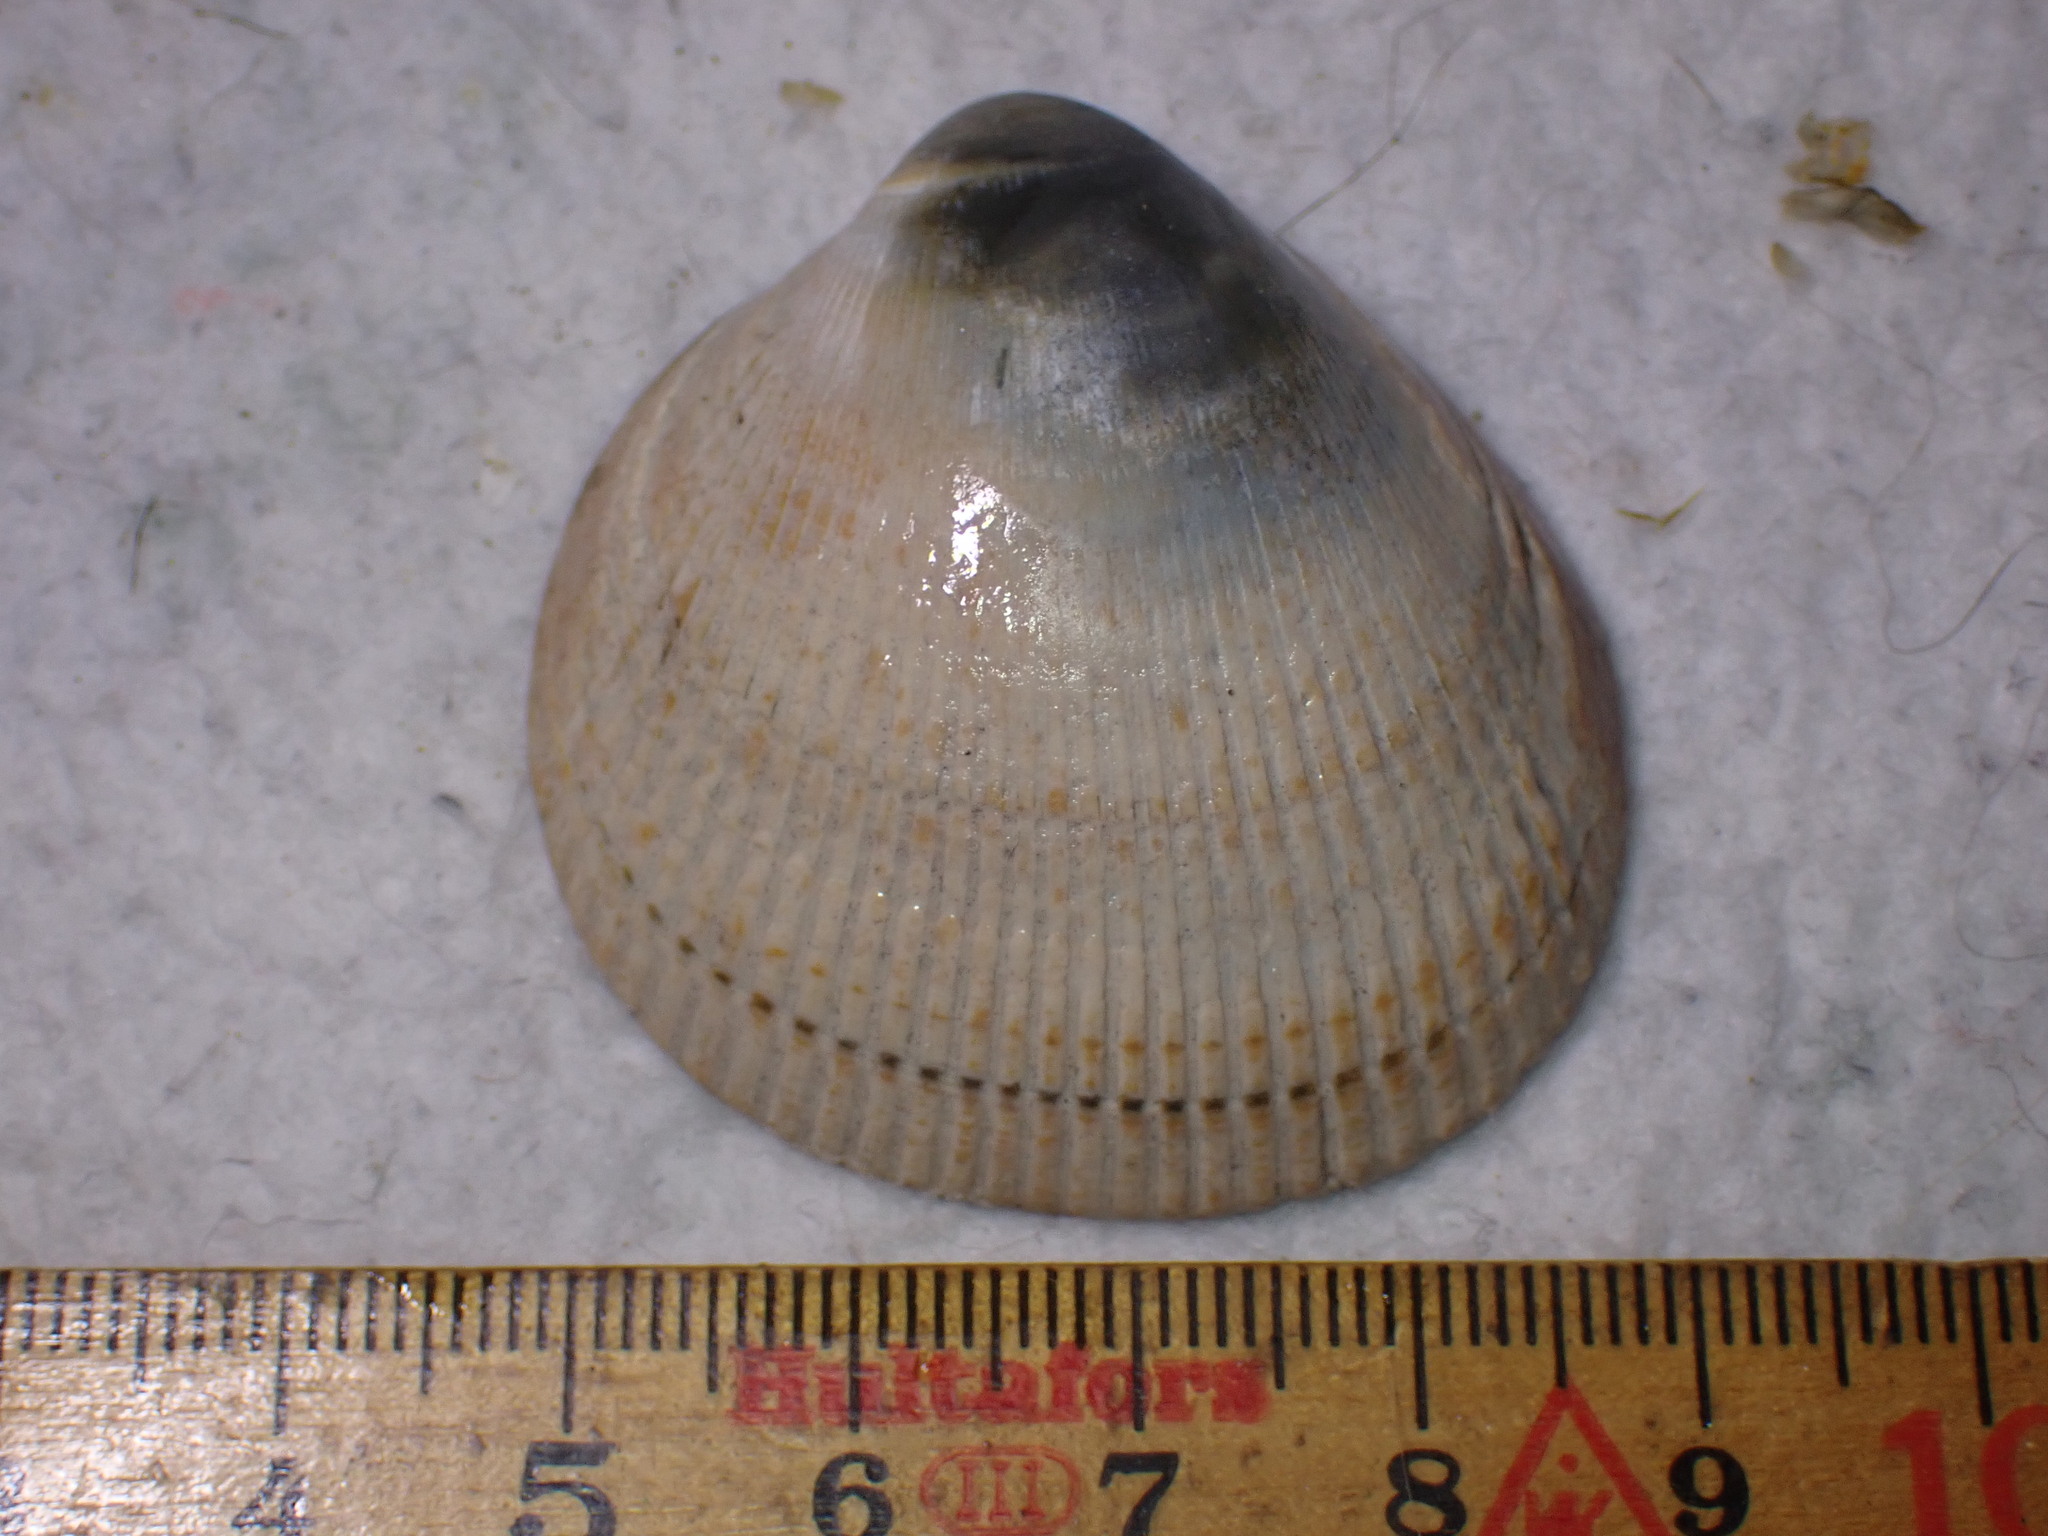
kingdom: Animalia
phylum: Mollusca
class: Bivalvia
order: Cardiida
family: Cardiidae
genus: Laevicardium
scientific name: Laevicardium crassum
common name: Norway cockle
